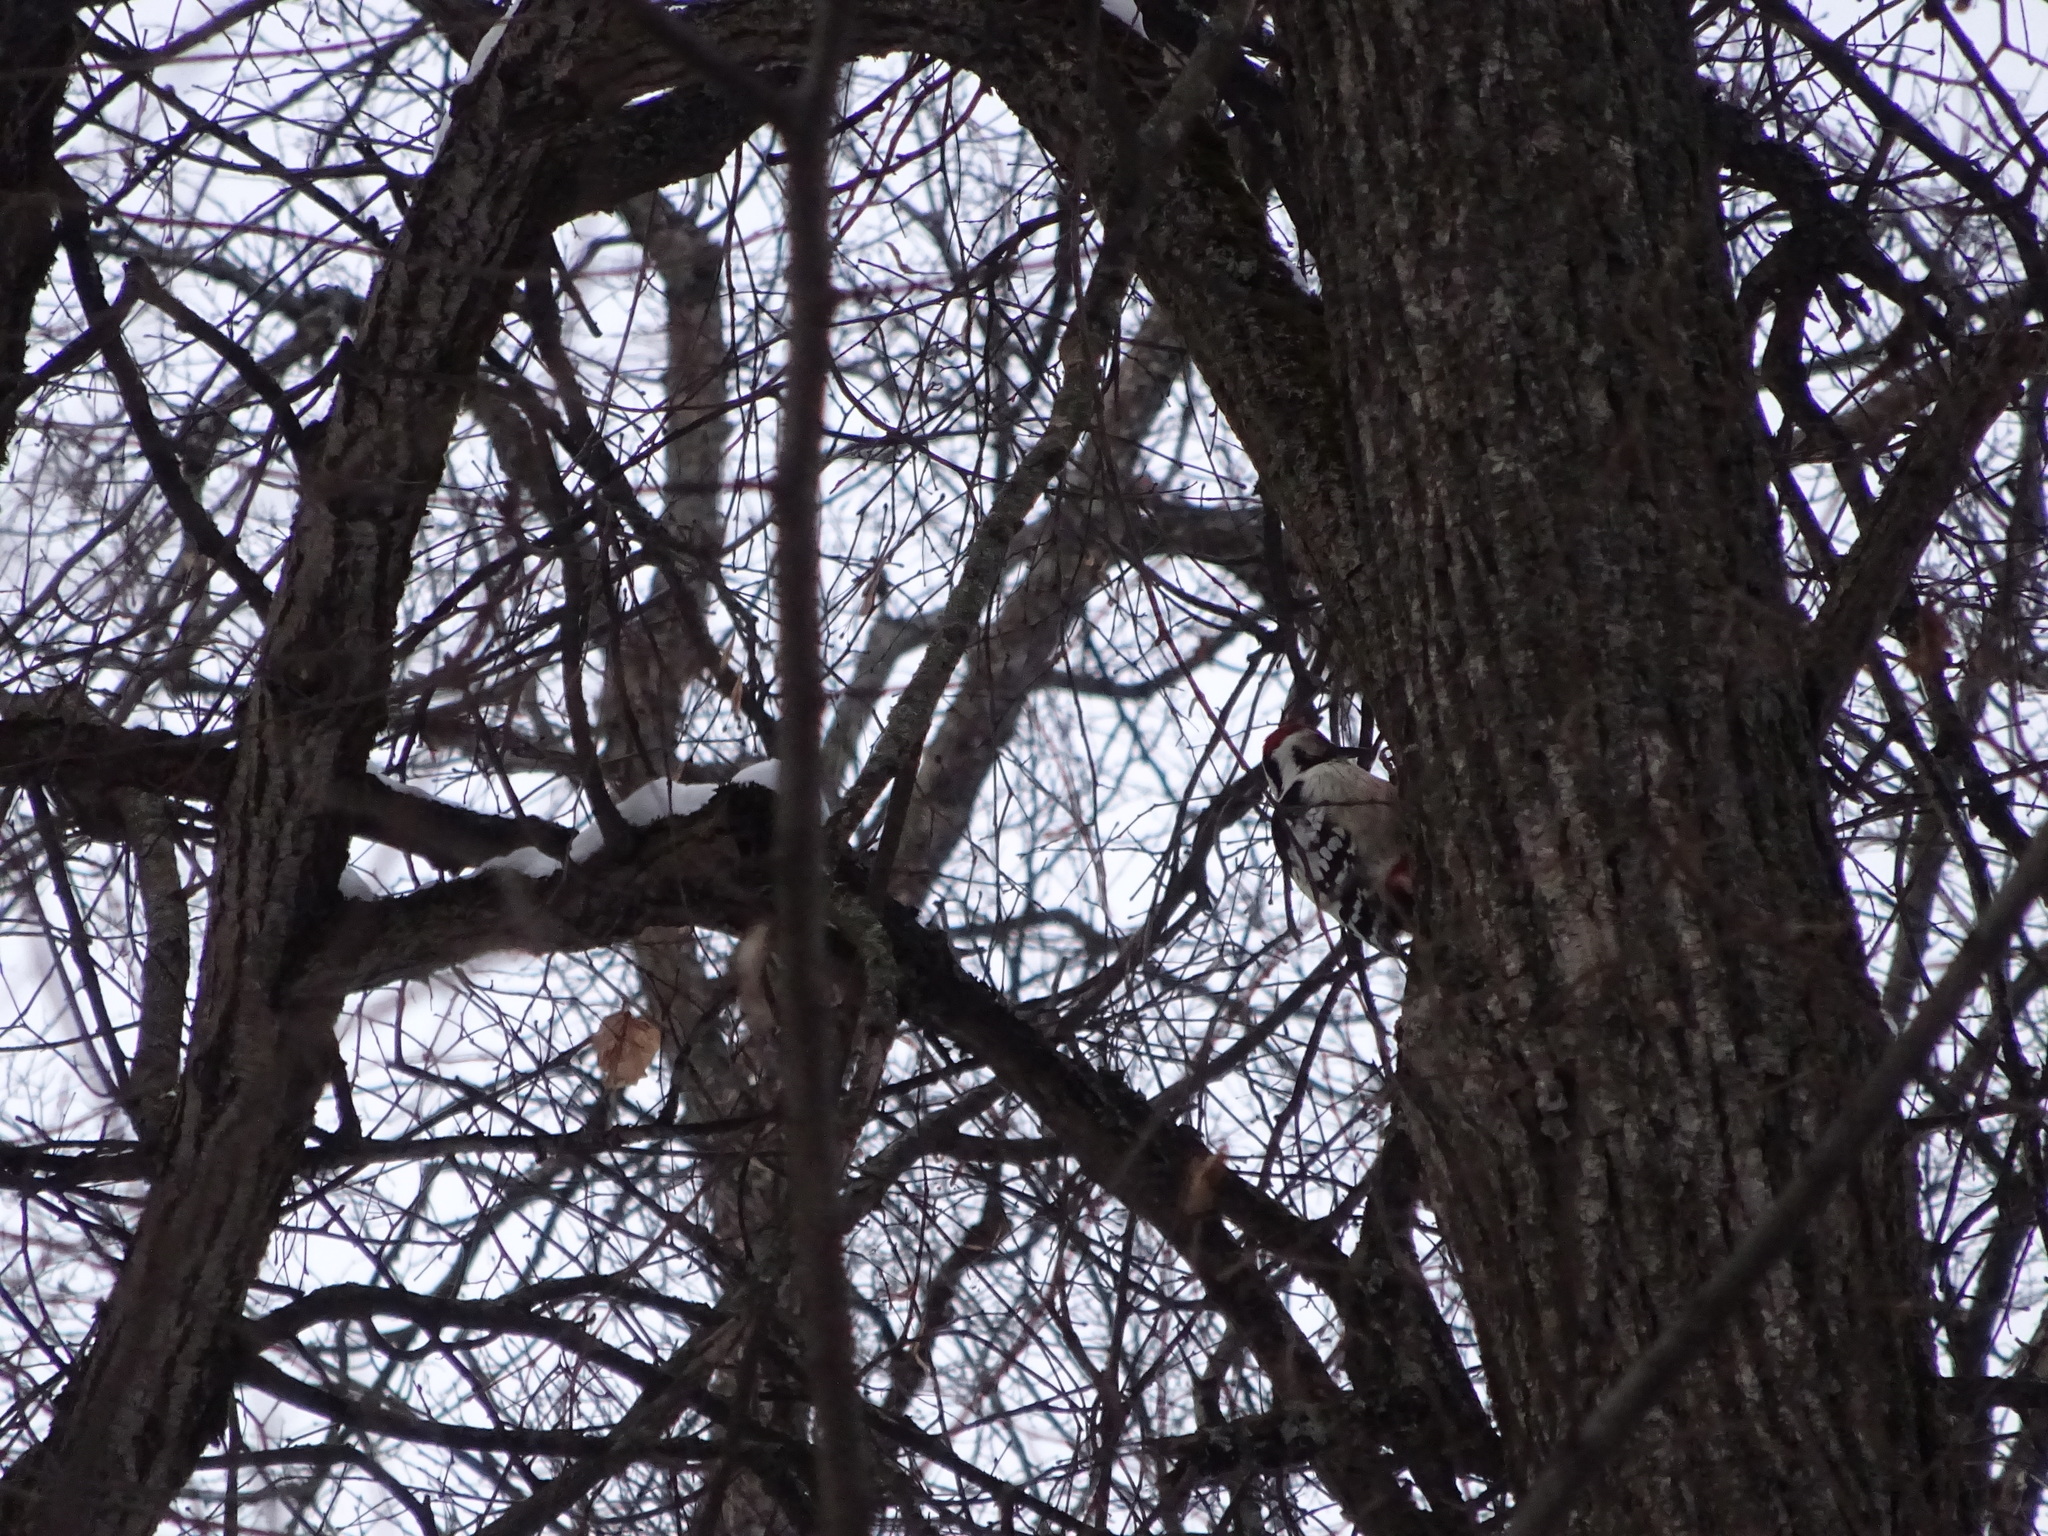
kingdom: Animalia
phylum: Chordata
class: Aves
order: Piciformes
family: Picidae
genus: Dendrocopos
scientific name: Dendrocopos leucotos
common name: White-backed woodpecker
